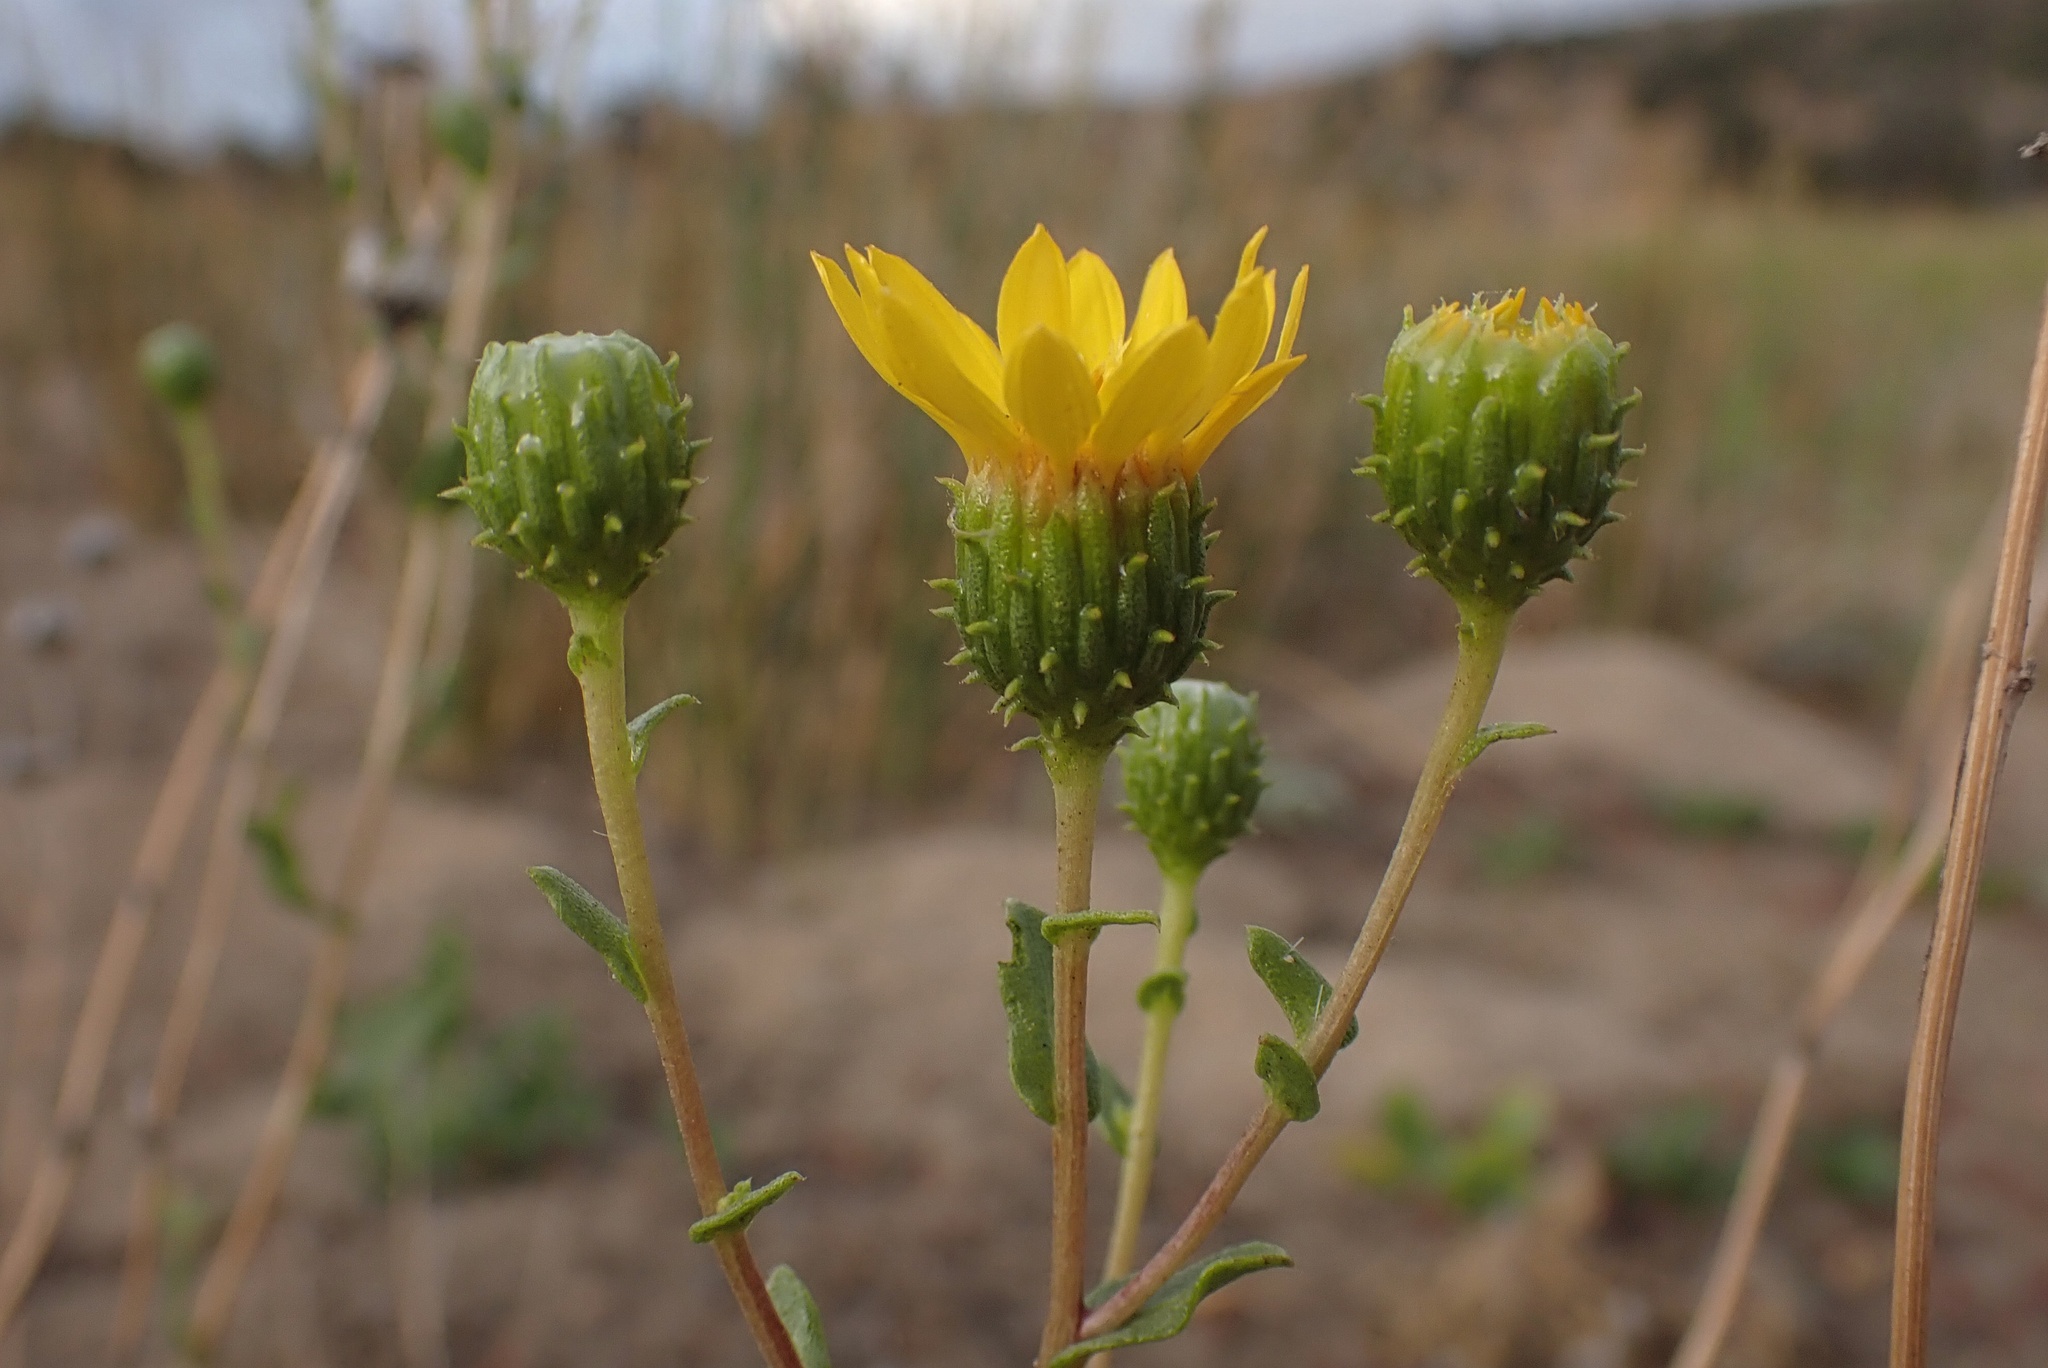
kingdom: Plantae
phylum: Tracheophyta
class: Magnoliopsida
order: Asterales
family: Asteraceae
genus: Grindelia
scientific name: Grindelia hirsutula
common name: Hairy gumweed
